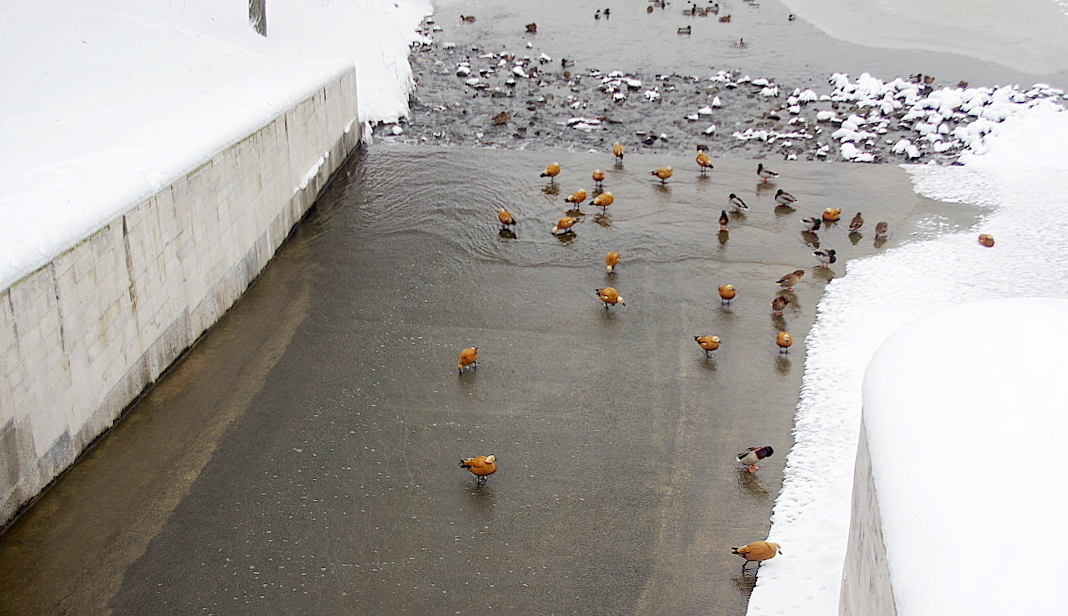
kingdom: Animalia
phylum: Chordata
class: Aves
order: Anseriformes
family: Anatidae
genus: Tadorna
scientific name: Tadorna ferruginea
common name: Ruddy shelduck
